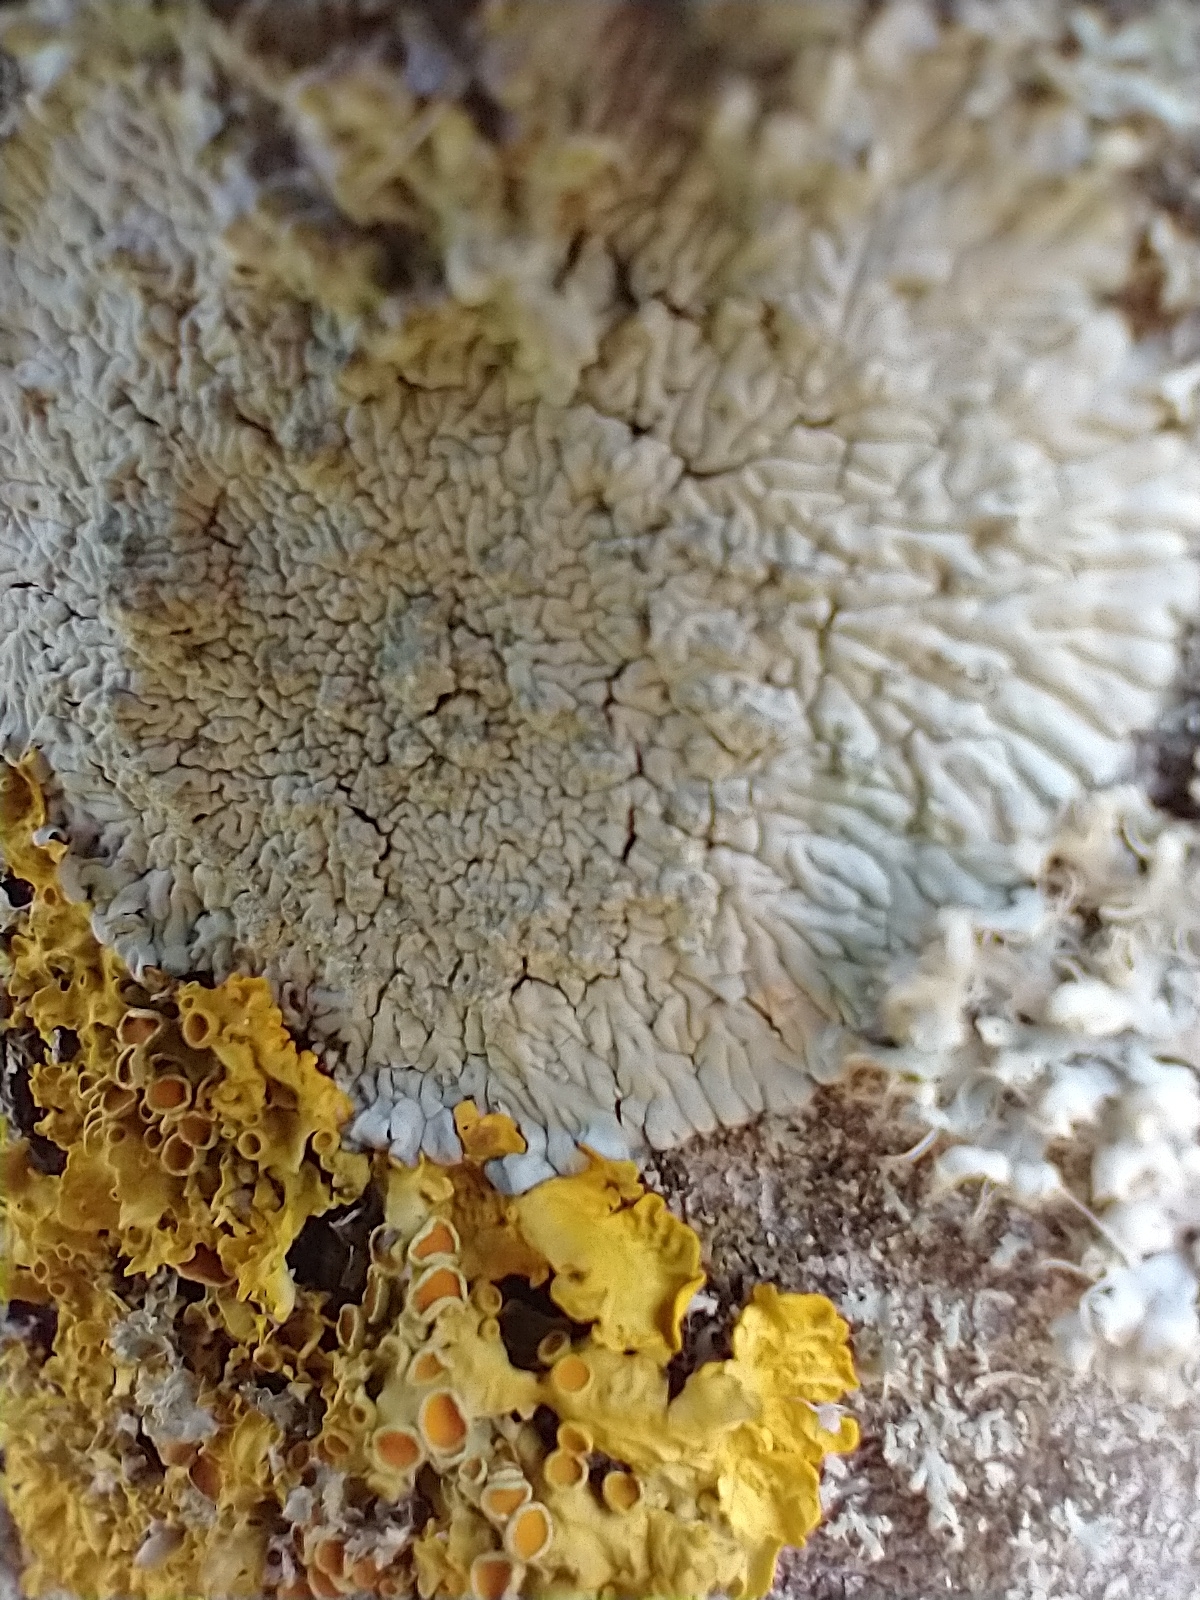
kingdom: Fungi
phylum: Ascomycota
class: Lecanoromycetes
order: Caliciales
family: Caliciaceae
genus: Diploicia
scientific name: Diploicia canescens
